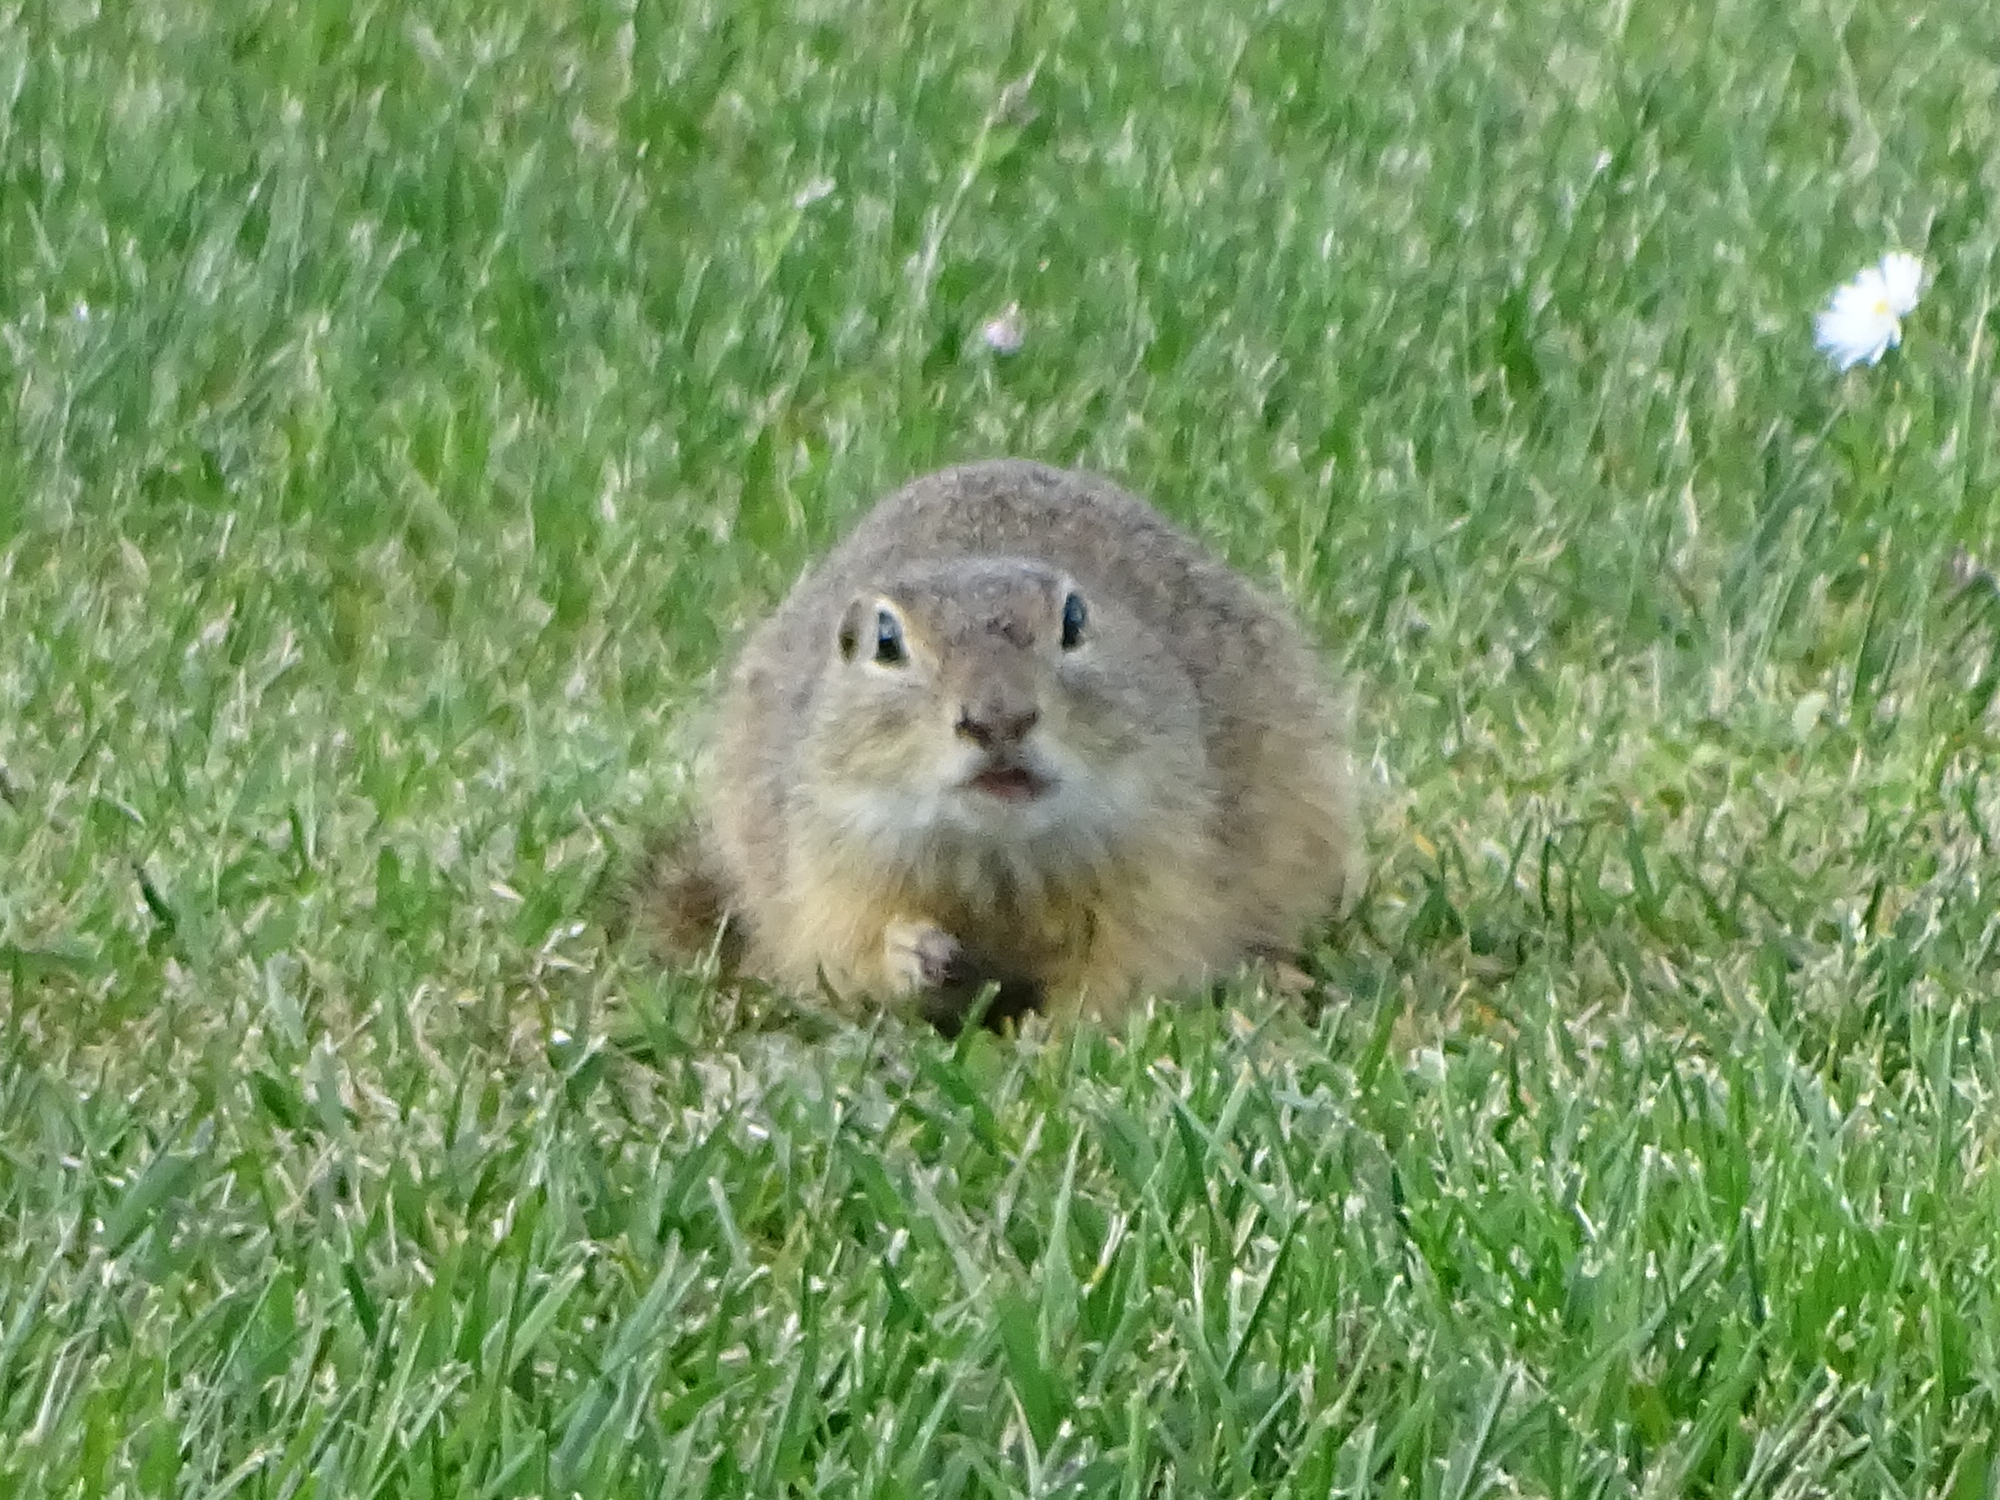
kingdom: Animalia
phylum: Chordata
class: Mammalia
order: Rodentia
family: Sciuridae
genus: Spermophilus
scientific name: Spermophilus citellus
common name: European ground squirrel
